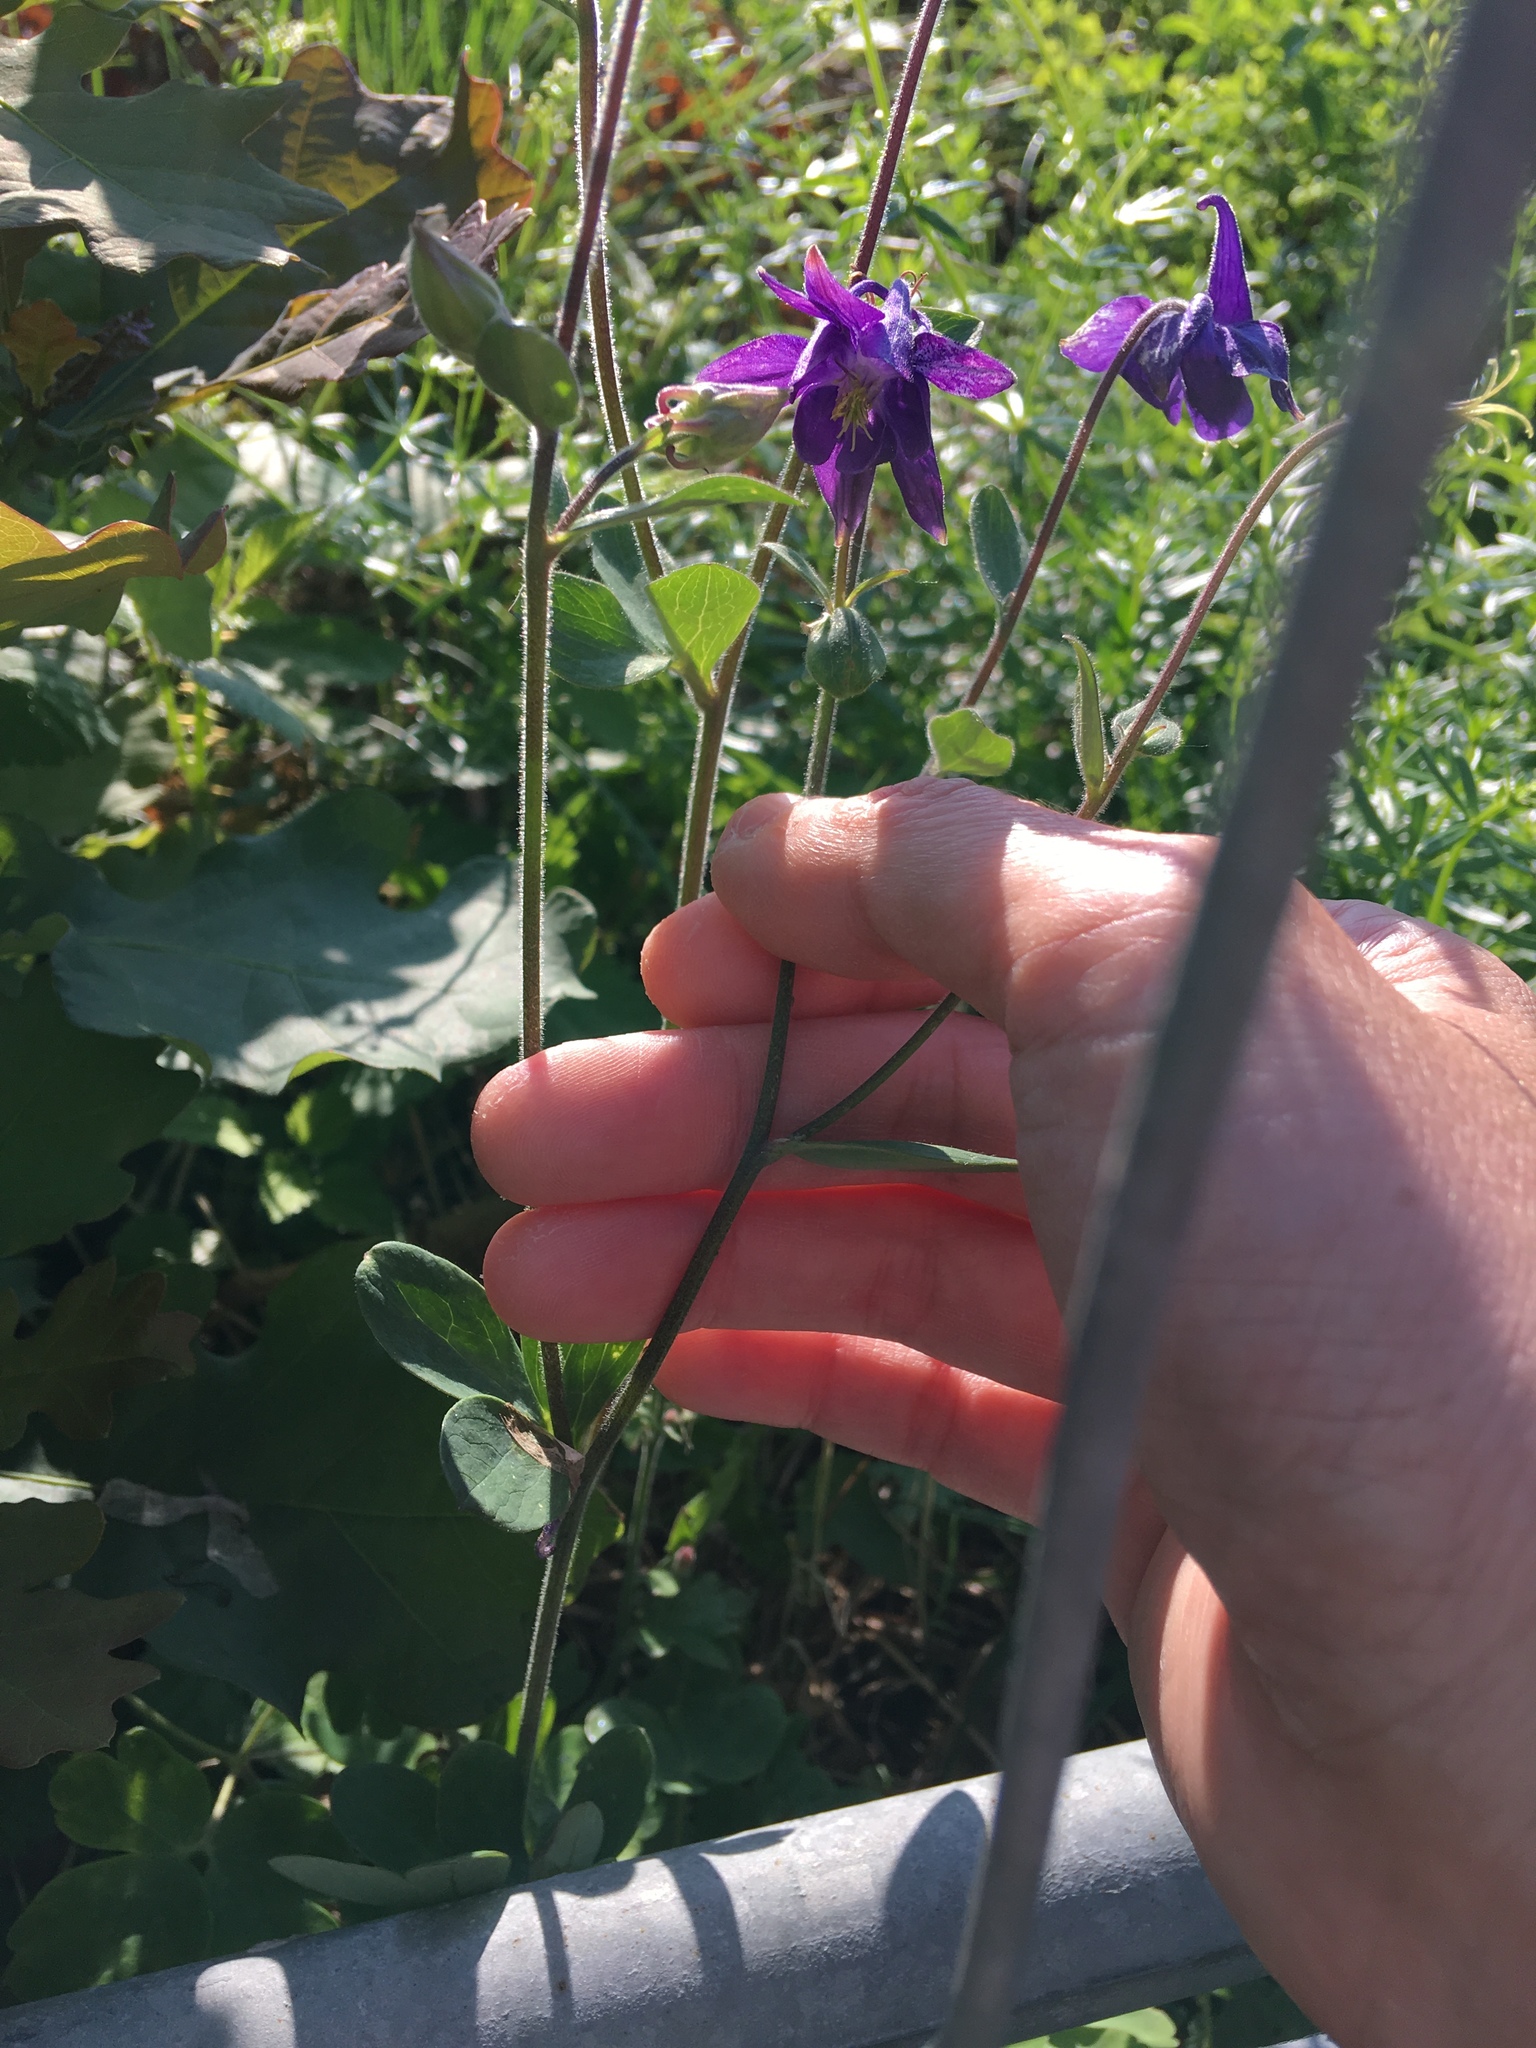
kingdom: Plantae
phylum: Tracheophyta
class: Magnoliopsida
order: Ranunculales
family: Ranunculaceae
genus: Aquilegia
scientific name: Aquilegia vulgaris
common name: Columbine
